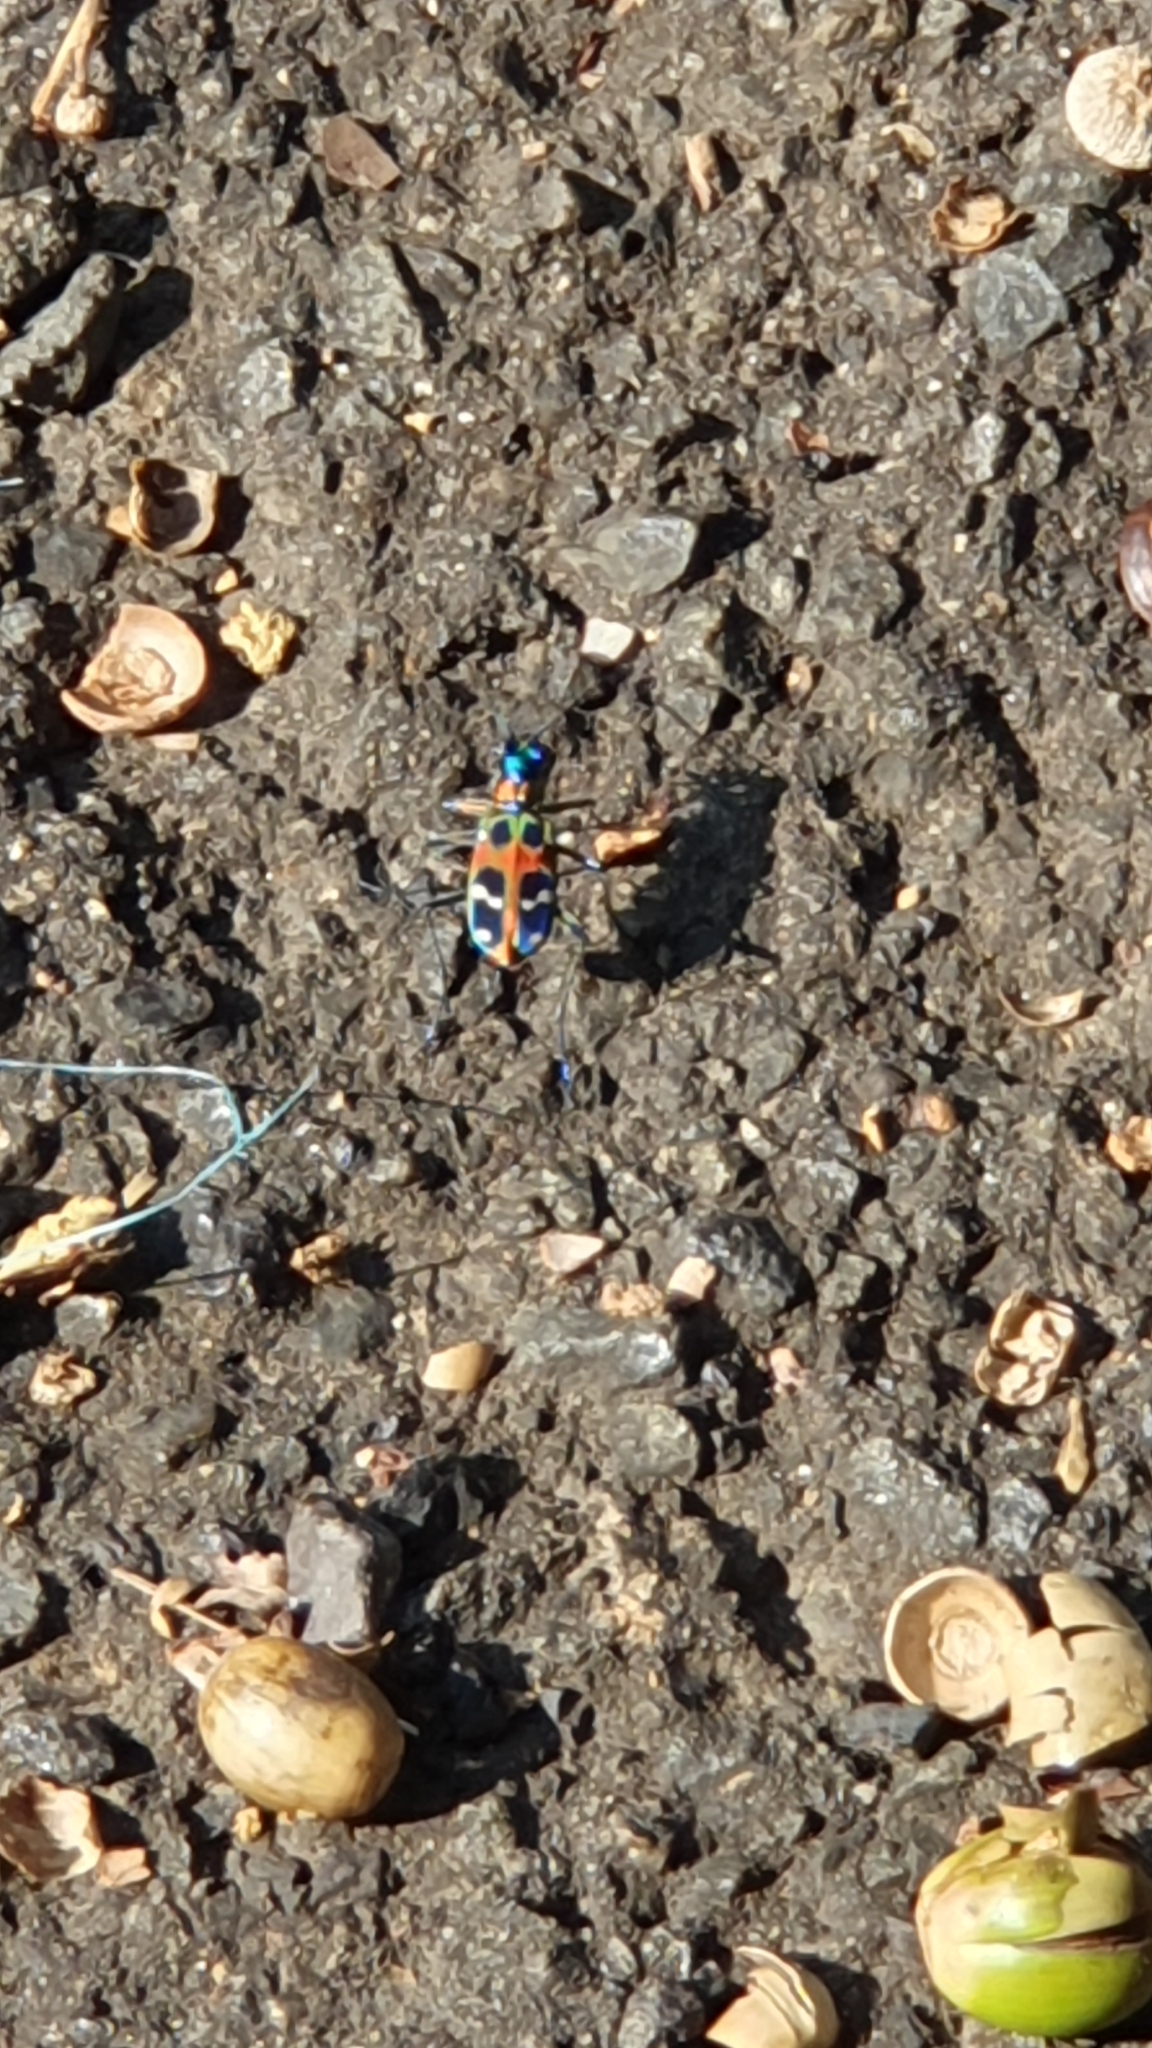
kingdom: Animalia
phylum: Arthropoda
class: Insecta
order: Coleoptera
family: Carabidae
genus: Cicindela
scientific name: Cicindela chinensis
